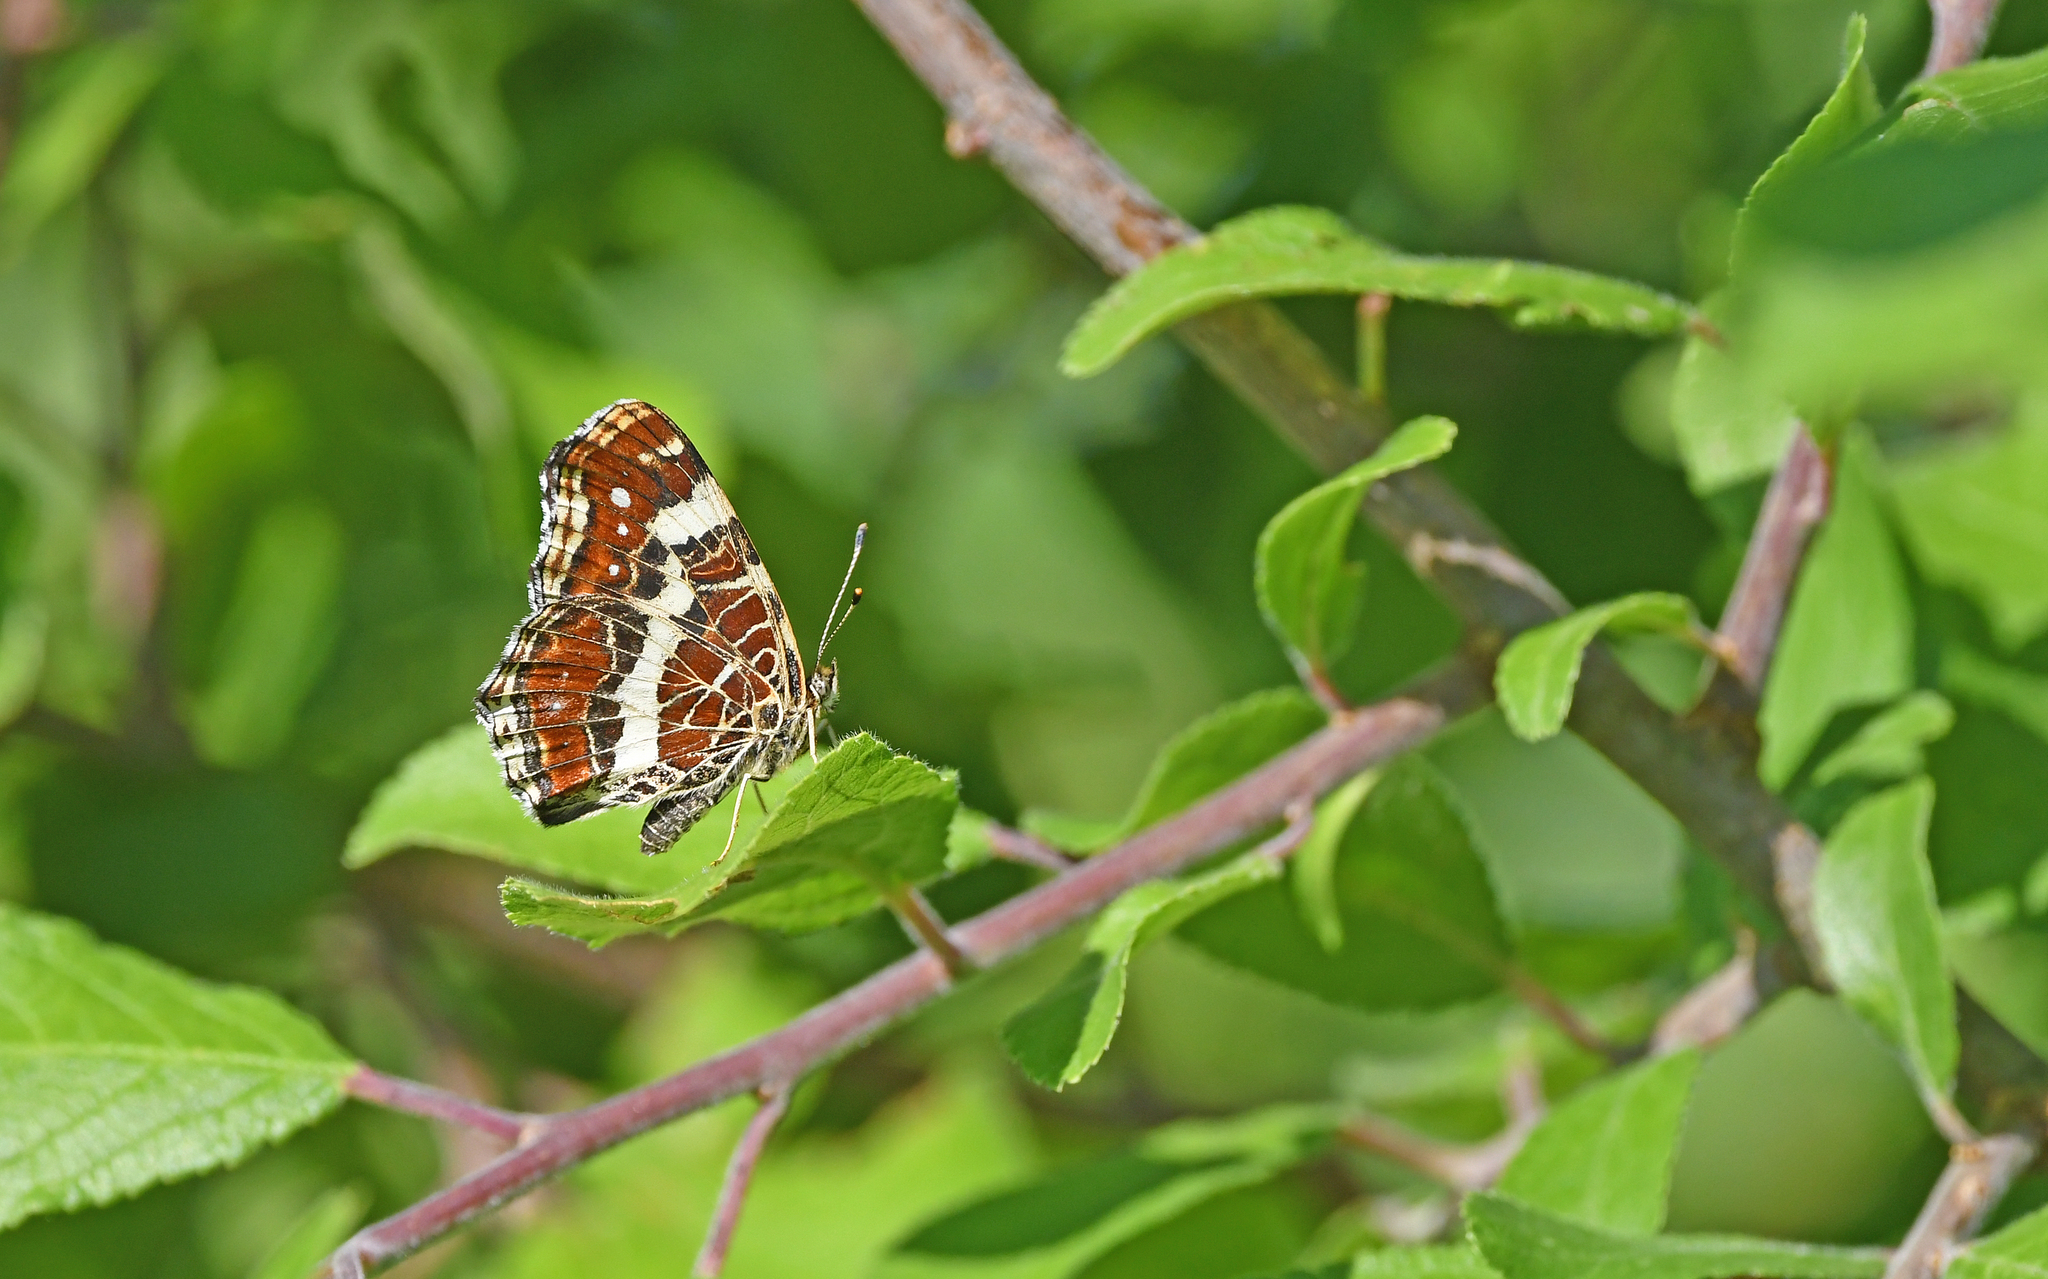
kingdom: Animalia
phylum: Arthropoda
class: Insecta
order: Lepidoptera
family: Nymphalidae
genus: Araschnia
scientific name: Araschnia levana
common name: Map butterfly
